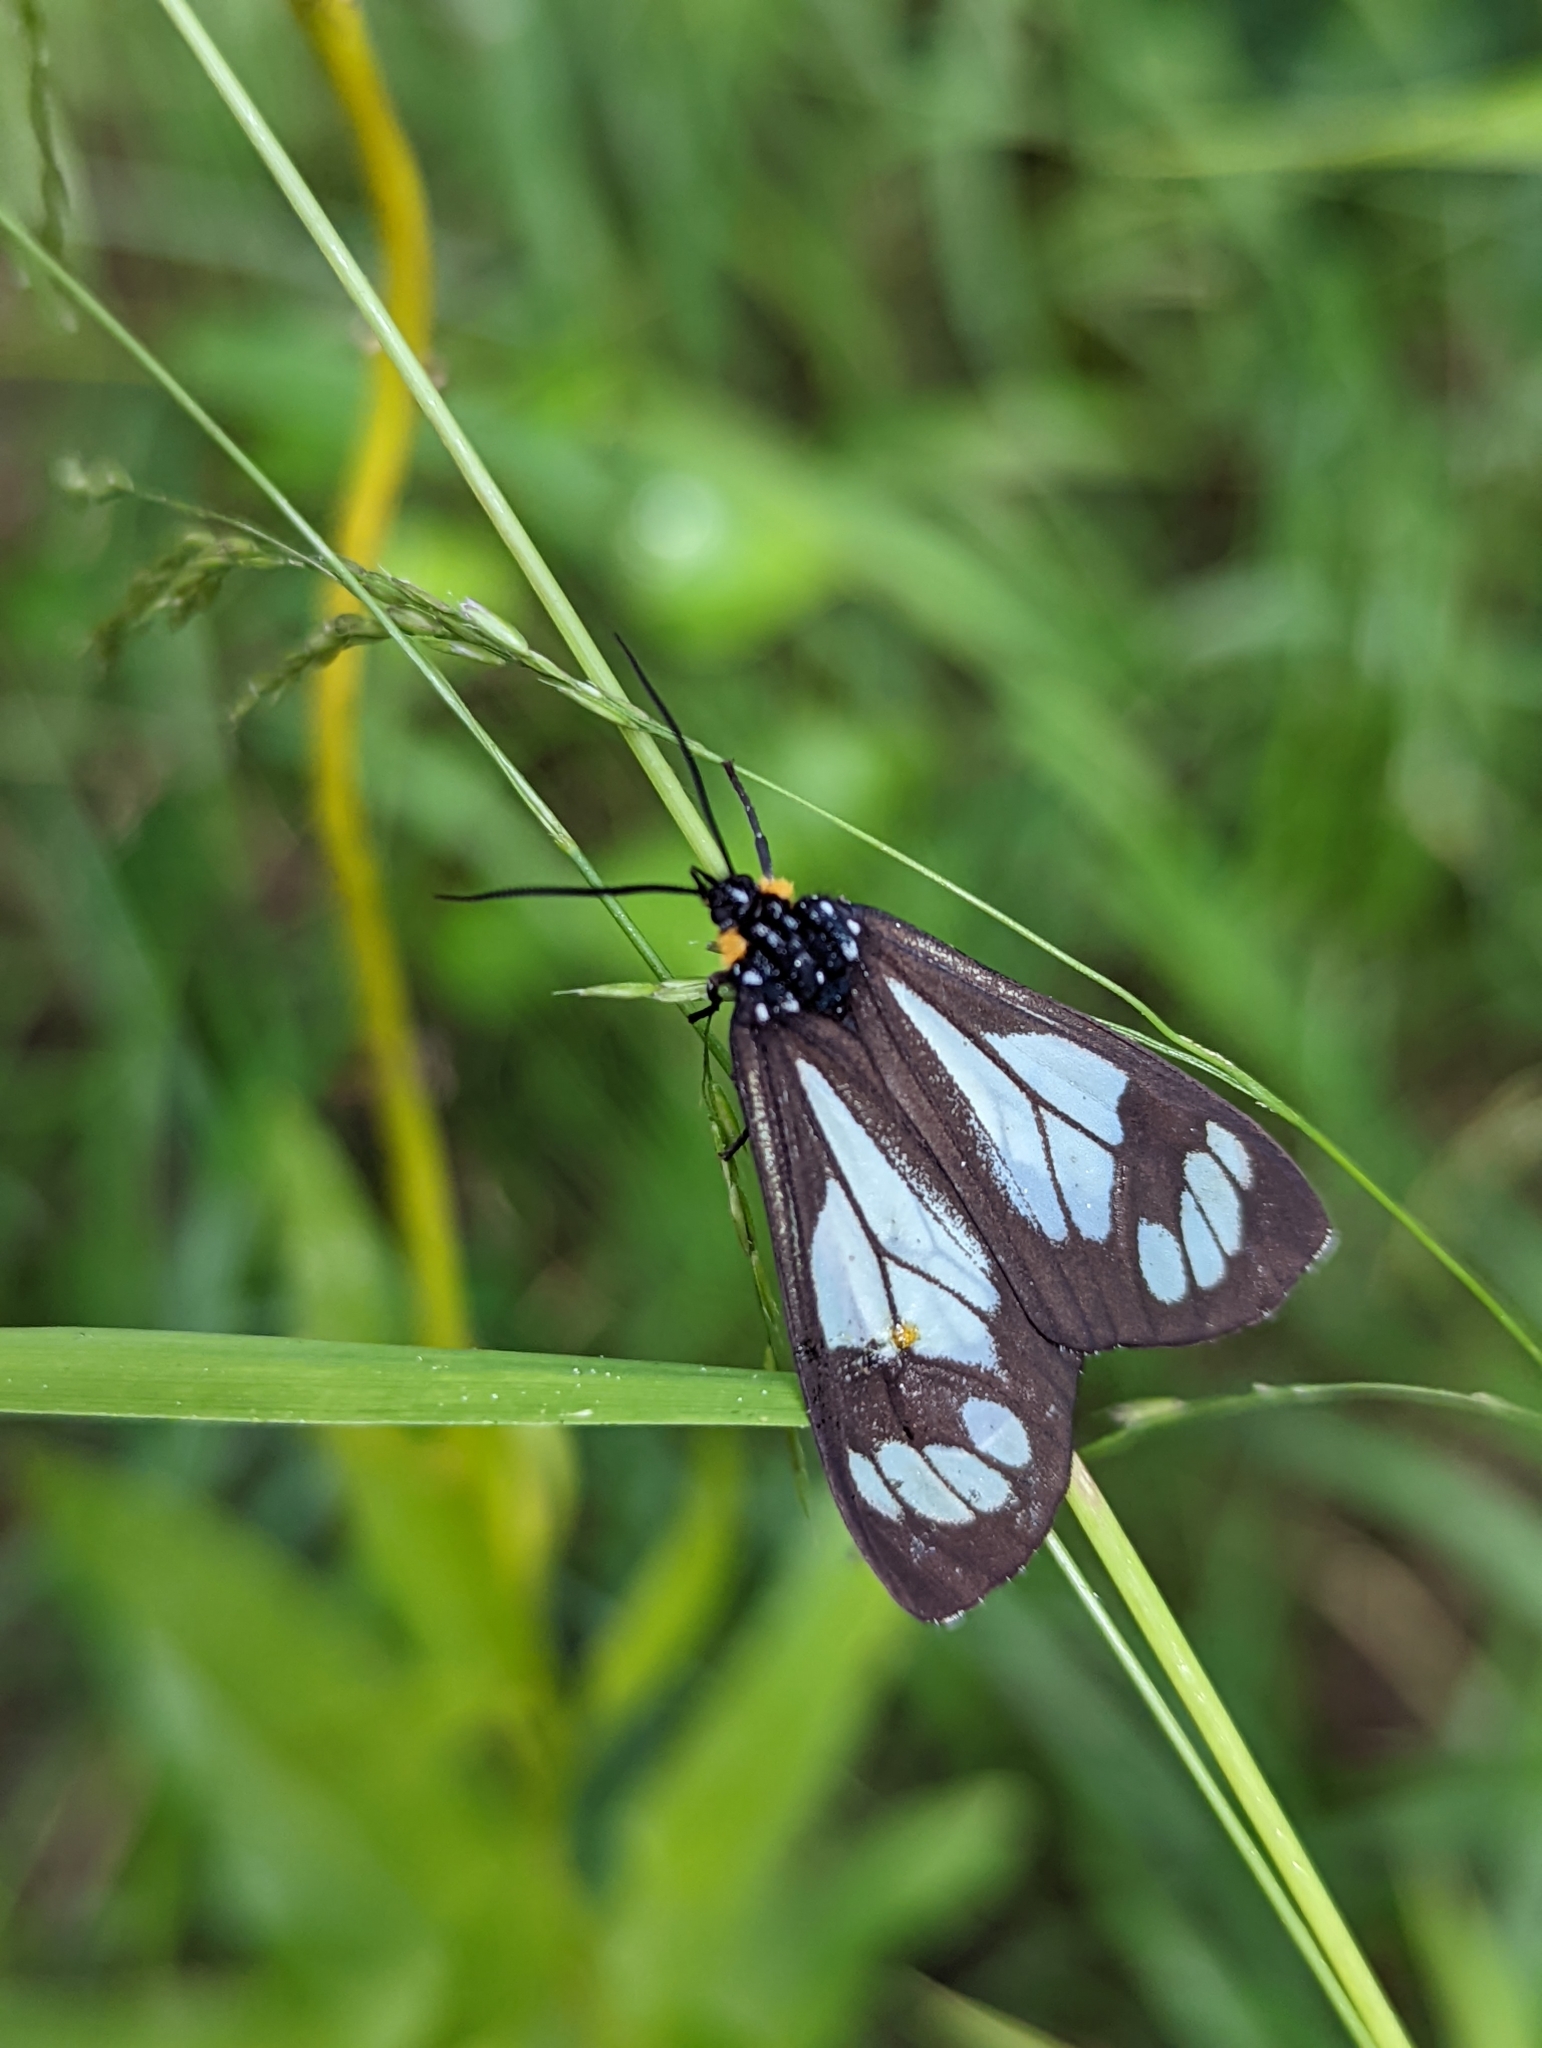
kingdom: Animalia
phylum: Arthropoda
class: Insecta
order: Lepidoptera
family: Erebidae
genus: Gnophaela
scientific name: Gnophaela vermiculata
